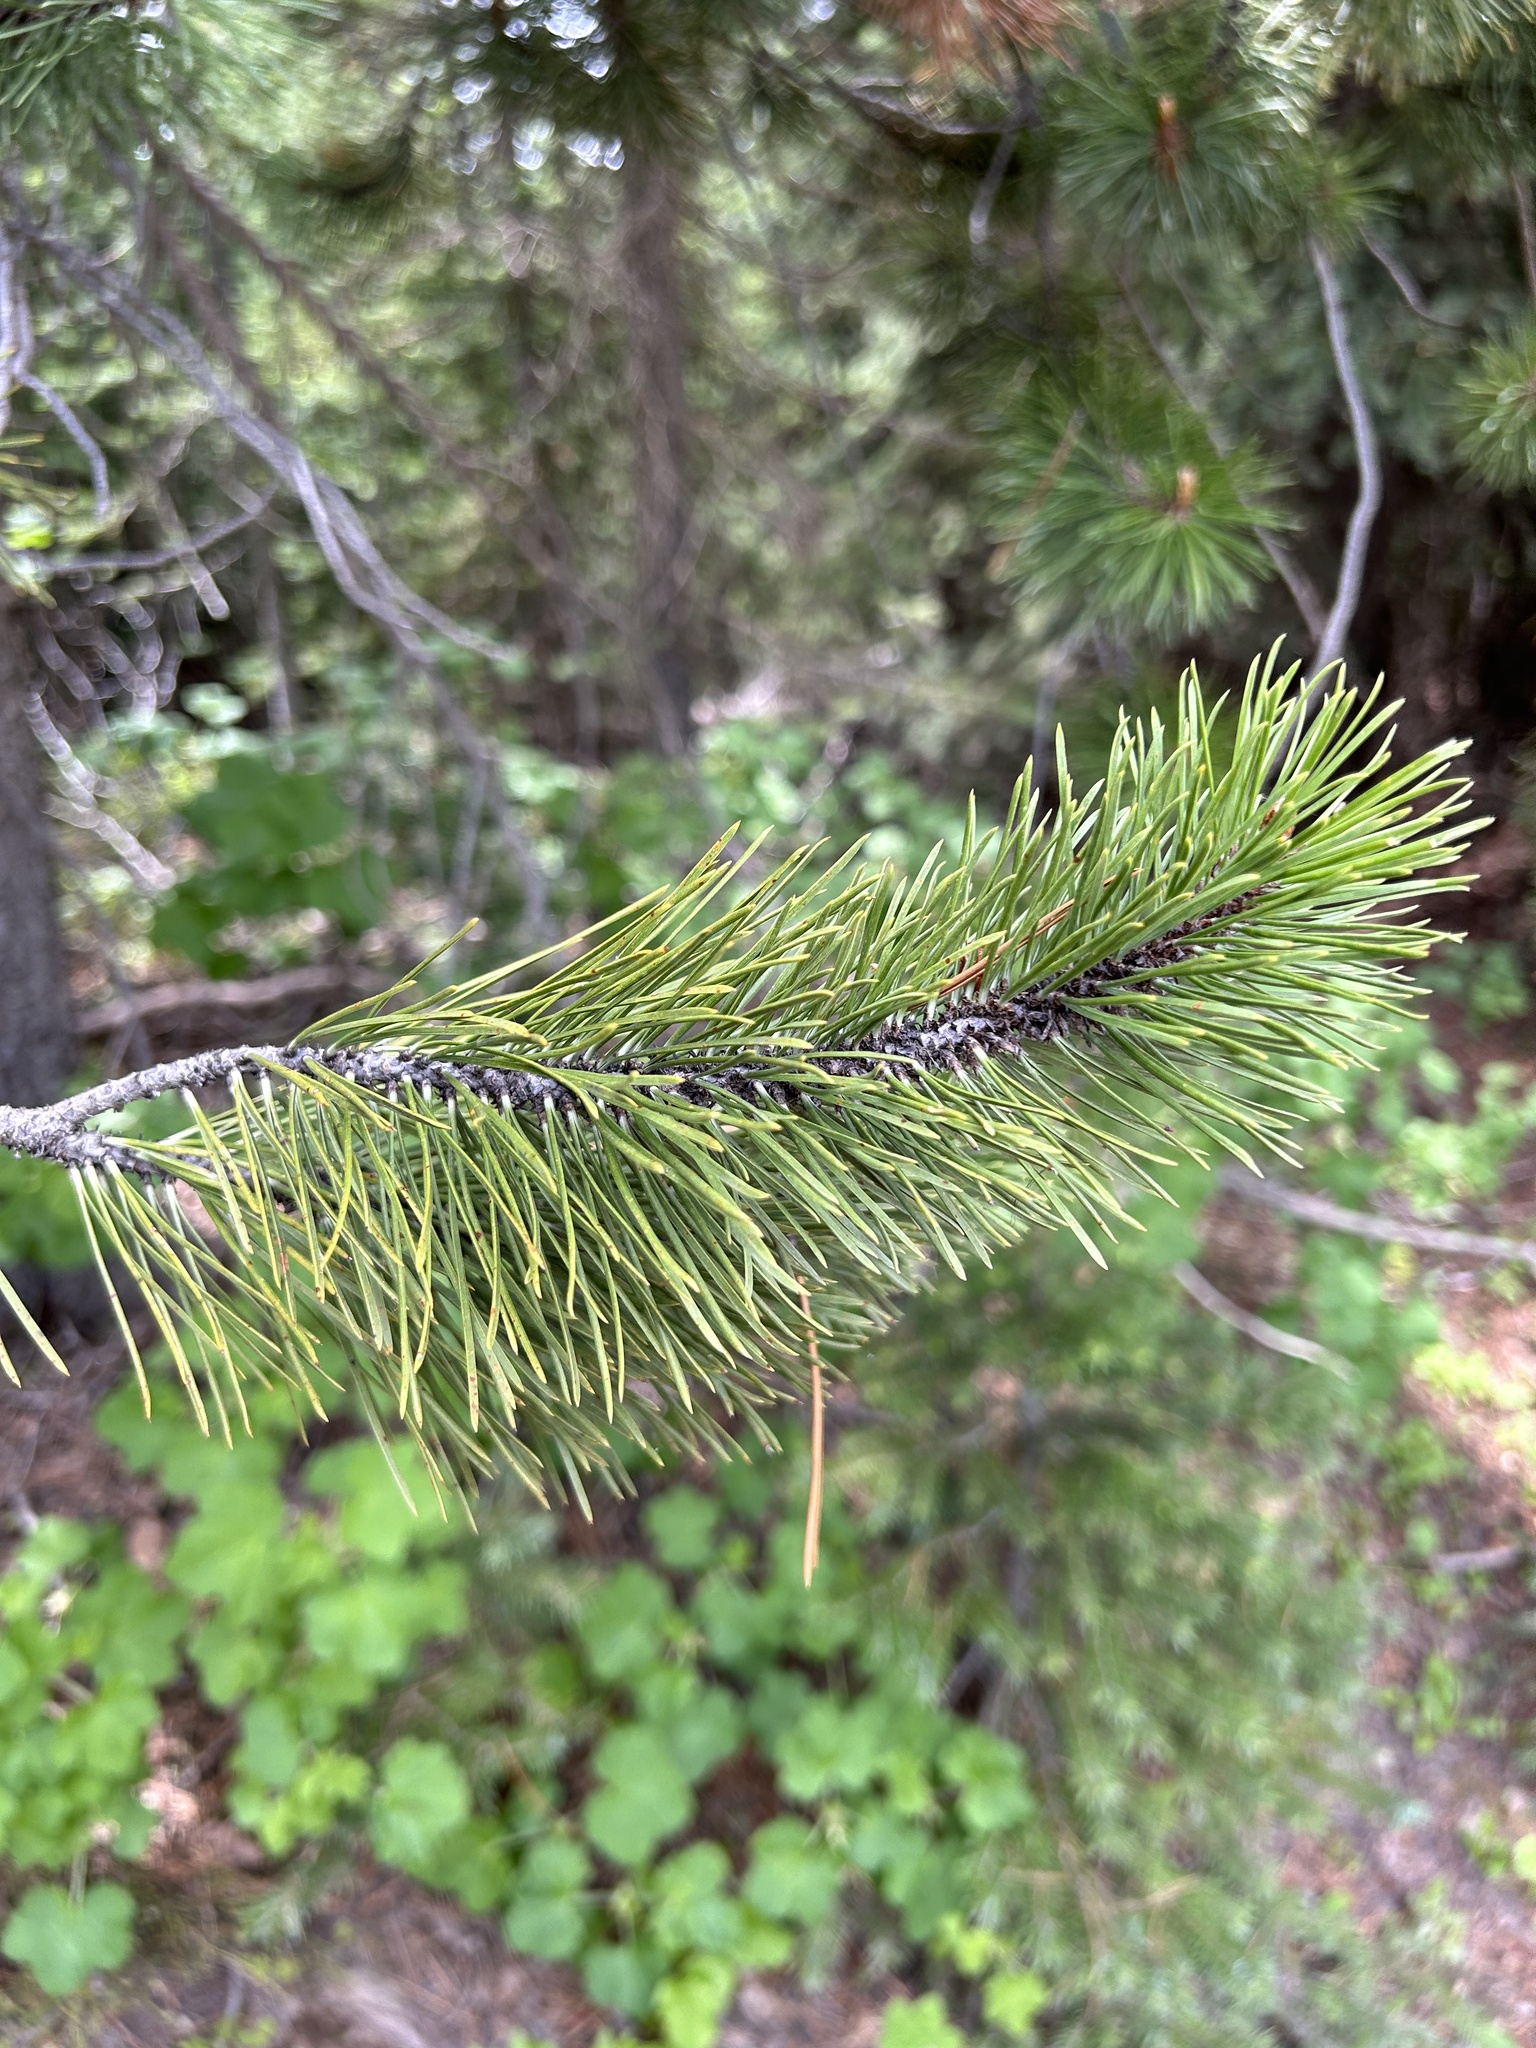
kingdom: Plantae
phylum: Tracheophyta
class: Pinopsida
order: Pinales
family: Pinaceae
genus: Pinus
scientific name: Pinus contorta
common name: Lodgepole pine
